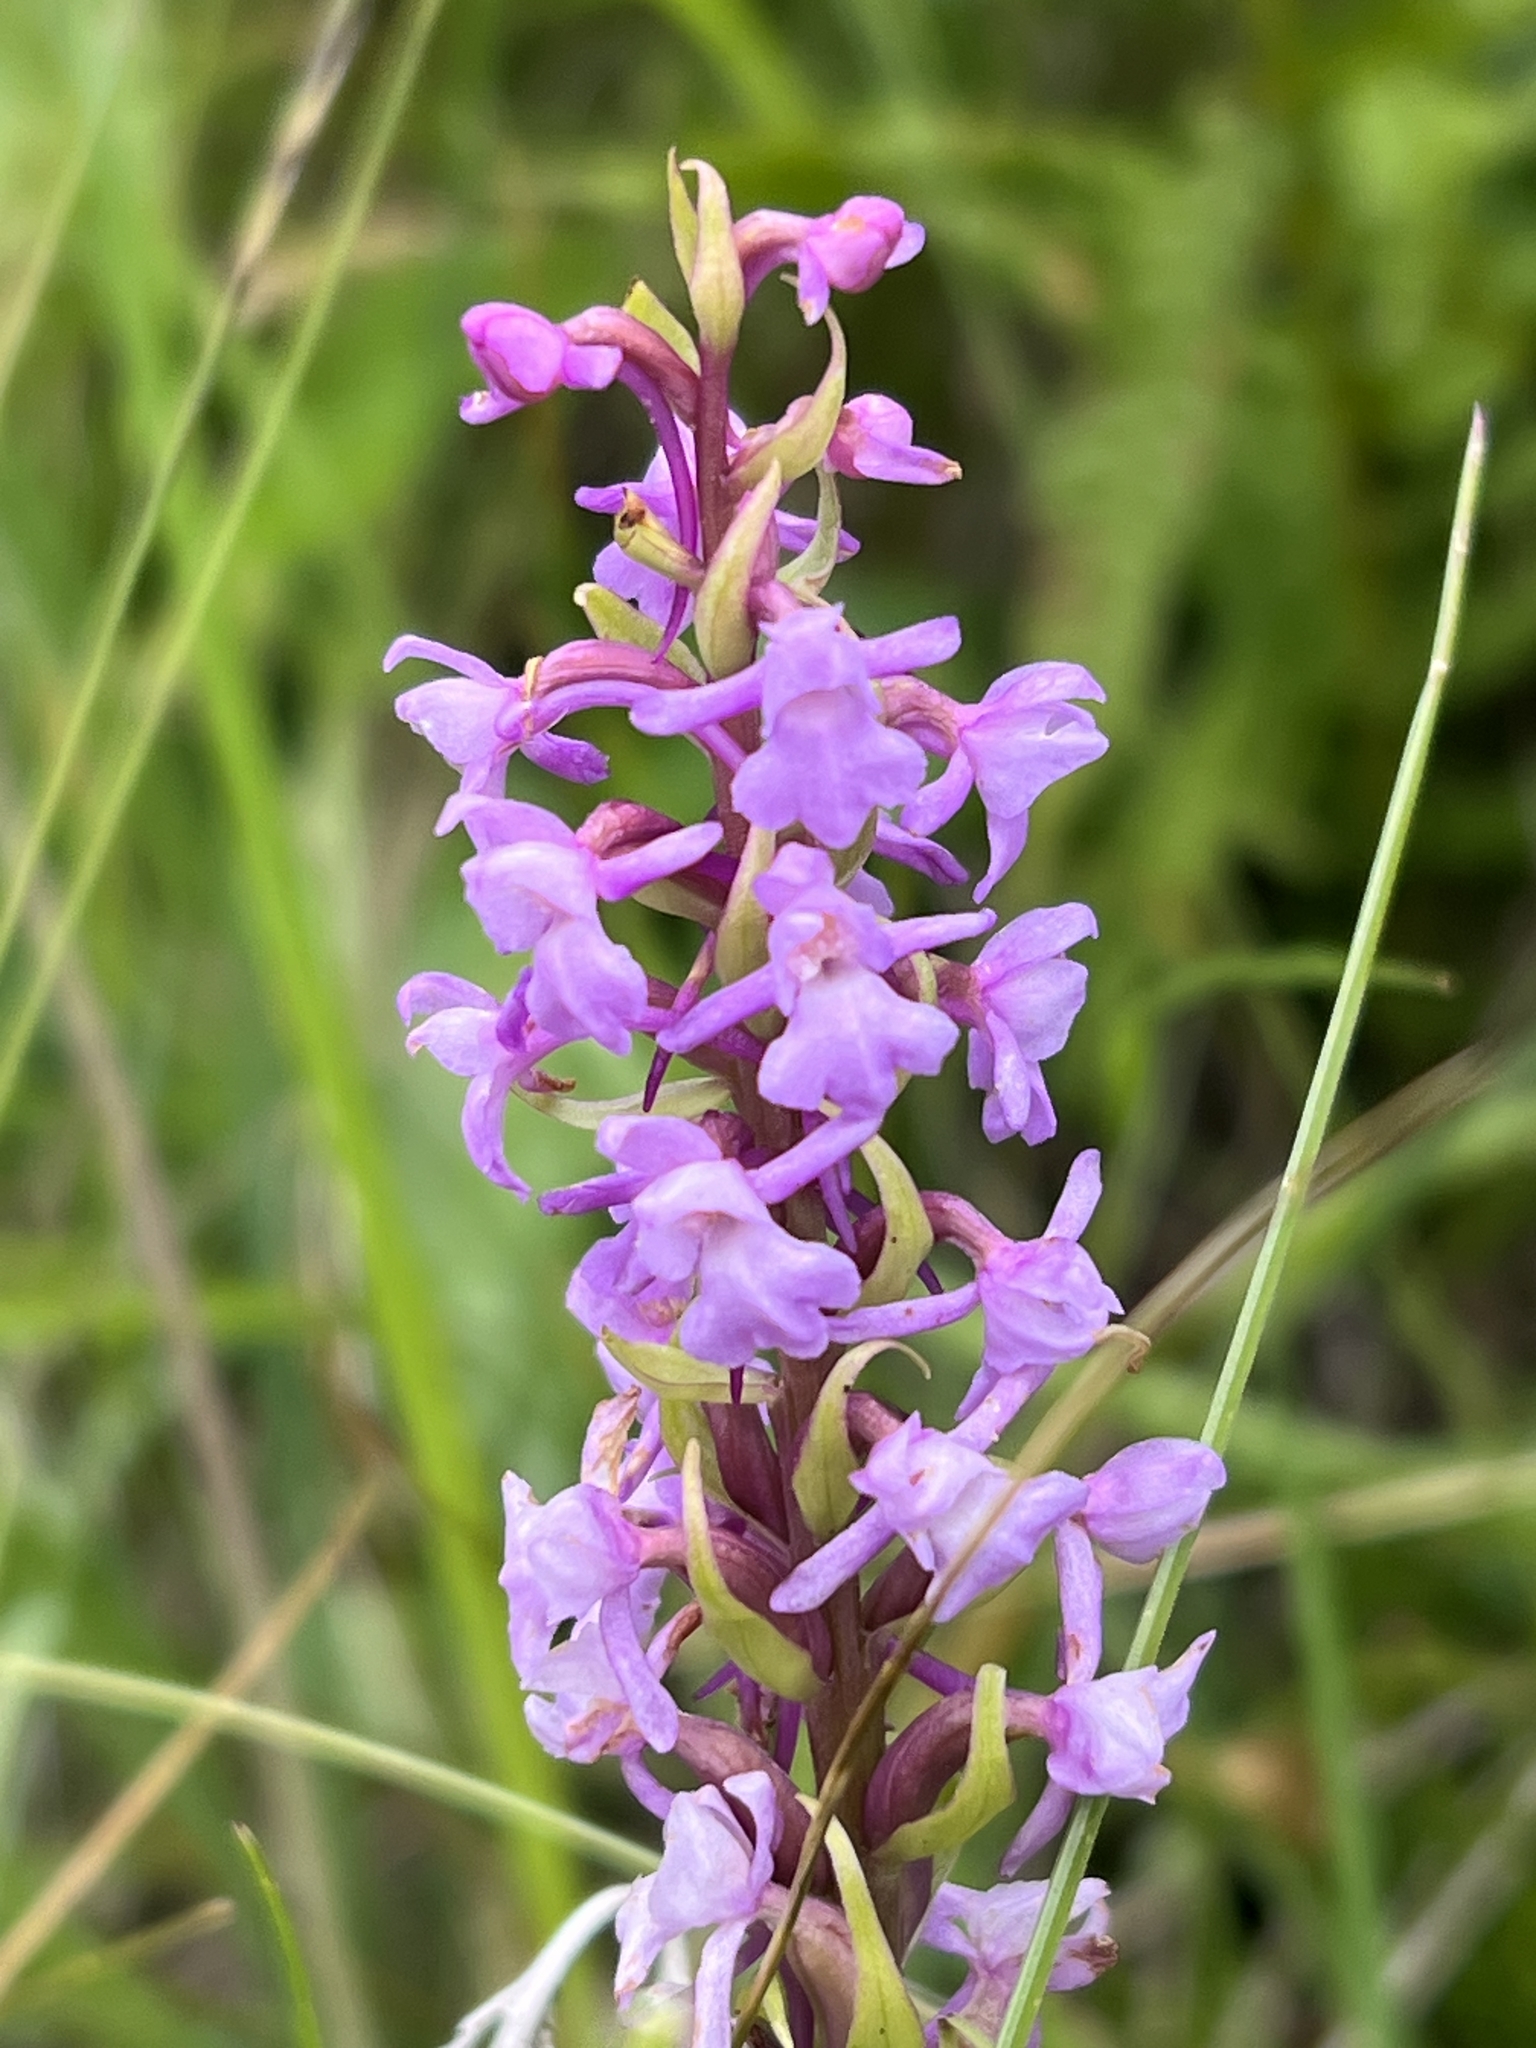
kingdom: Plantae
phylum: Tracheophyta
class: Liliopsida
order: Asparagales
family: Orchidaceae
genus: Gymnadenia
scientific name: Gymnadenia conopsea
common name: Fragrant orchid
